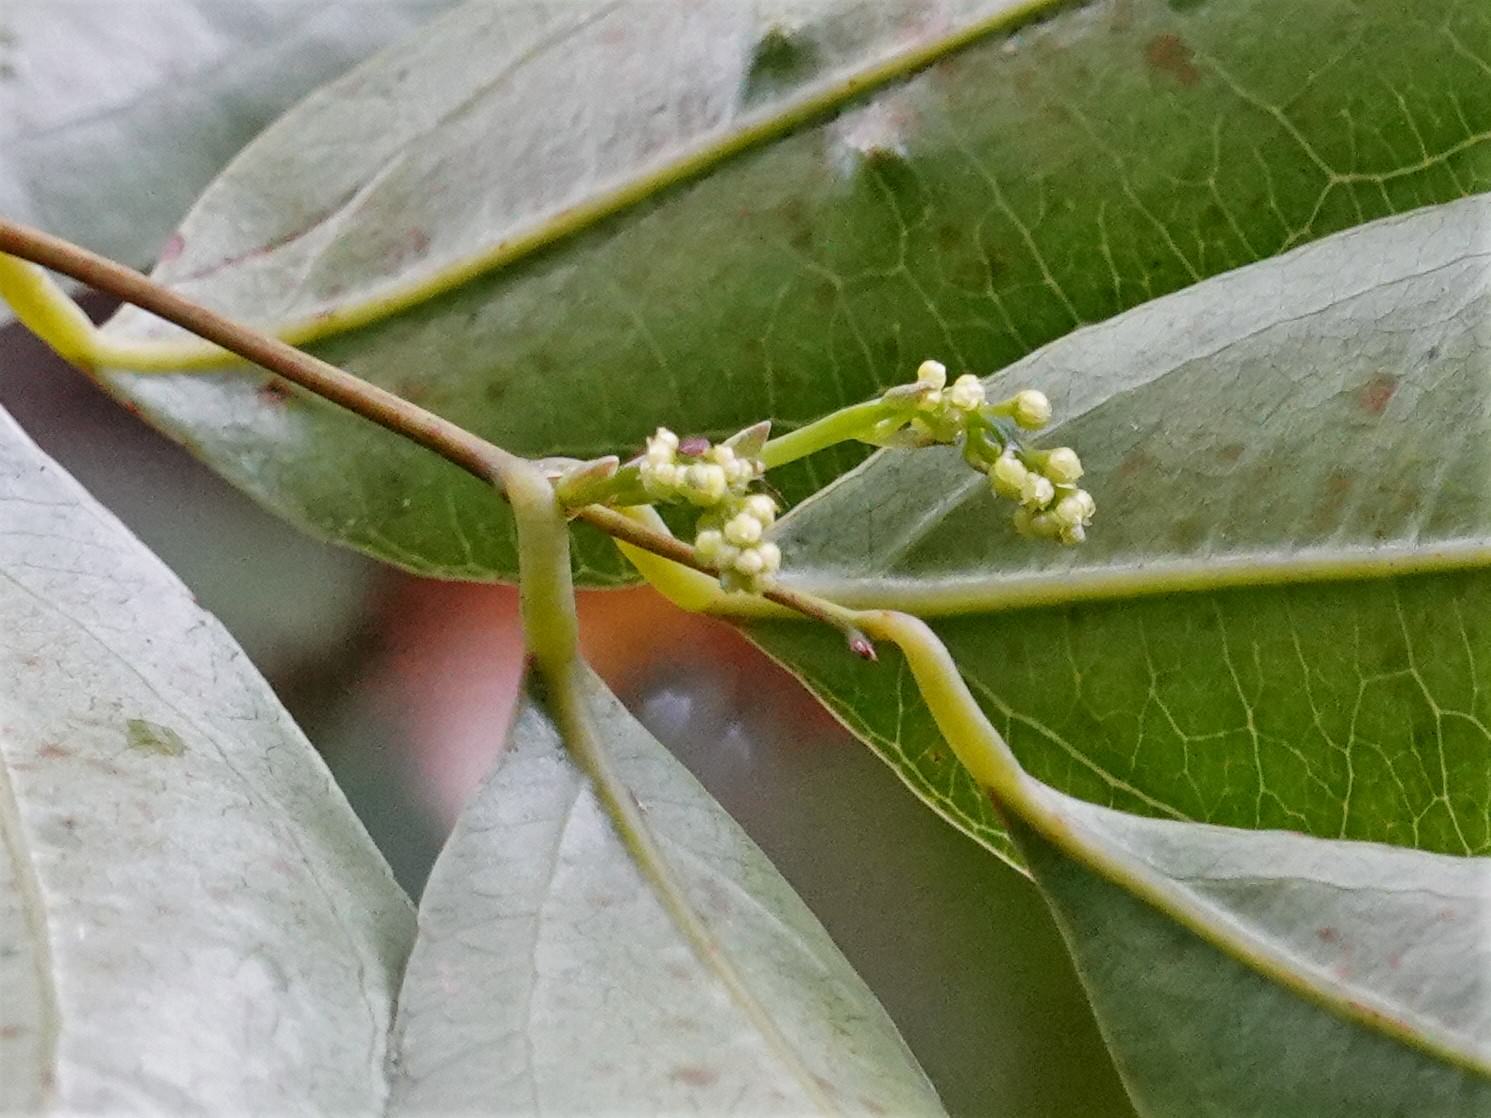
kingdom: Plantae
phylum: Tracheophyta
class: Liliopsida
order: Liliales
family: Ripogonaceae
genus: Ripogonum
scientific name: Ripogonum scandens
